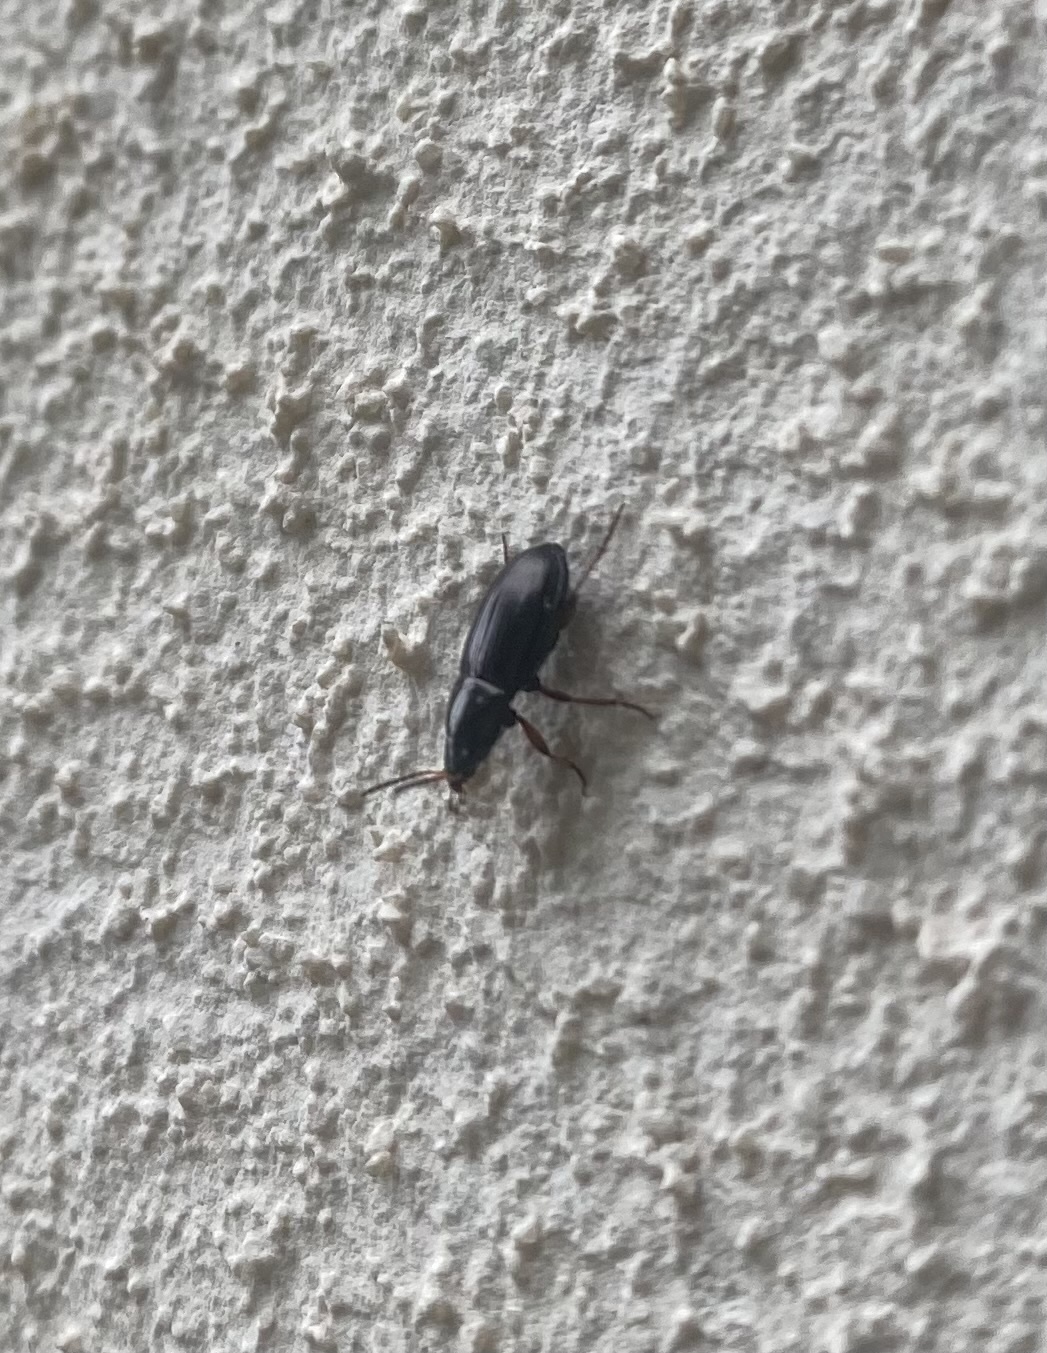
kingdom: Animalia
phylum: Arthropoda
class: Insecta
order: Coleoptera
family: Carabidae
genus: Amara
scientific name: Amara
